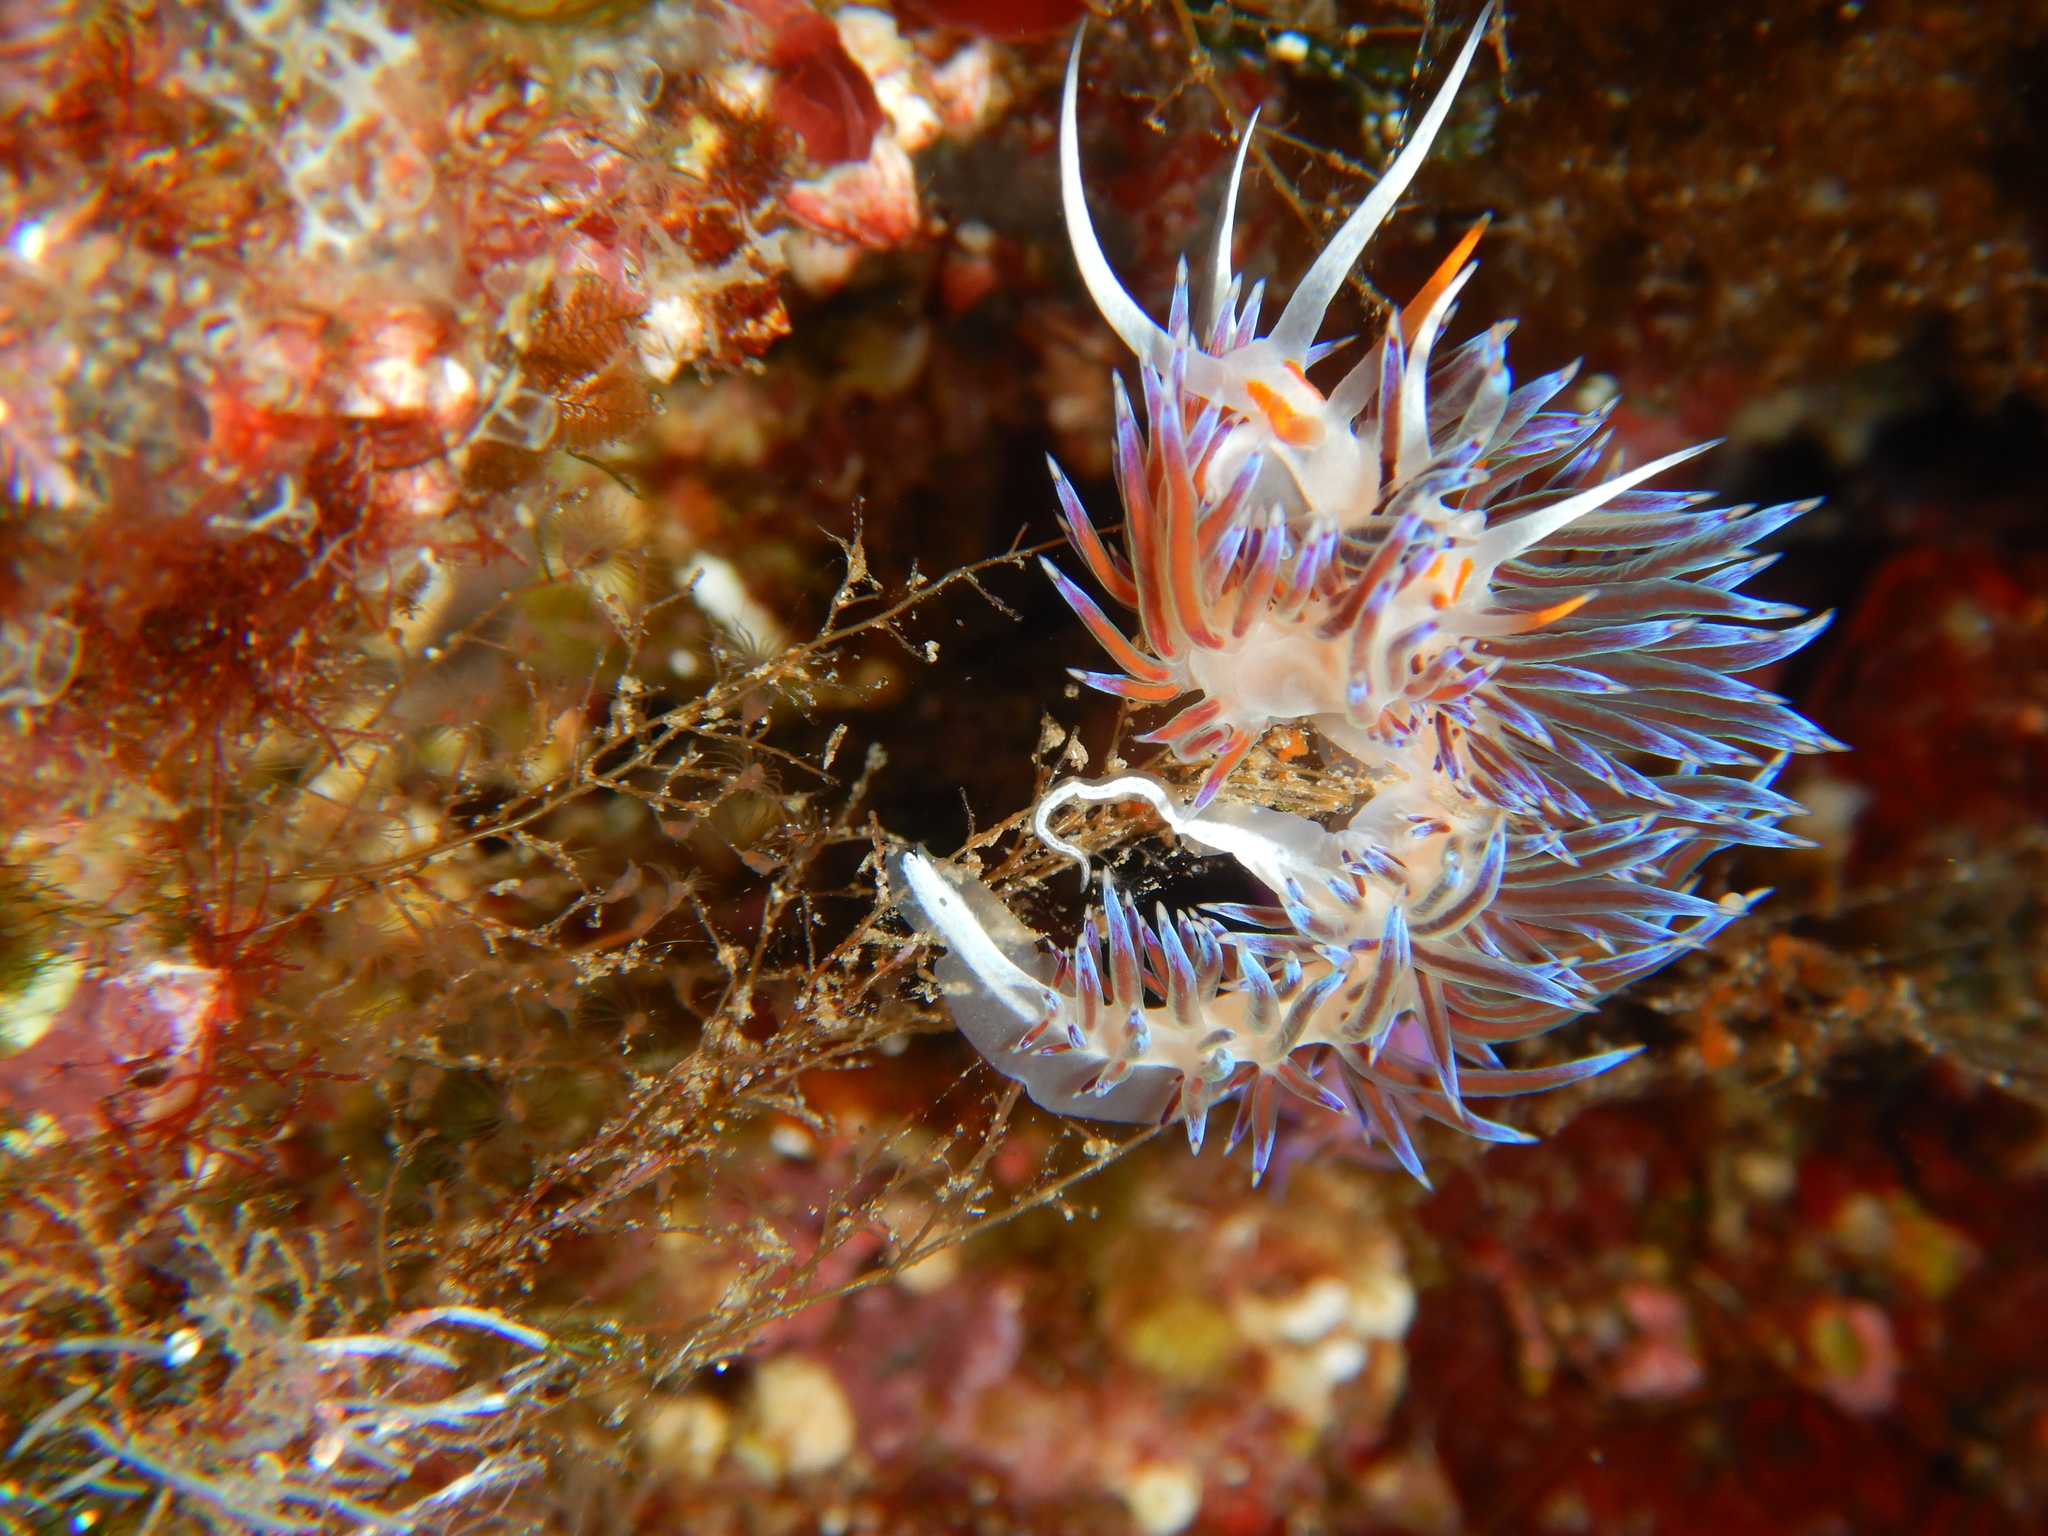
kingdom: Animalia
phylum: Mollusca
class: Gastropoda
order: Nudibranchia
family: Facelinidae
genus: Cratena
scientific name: Cratena peregrina
